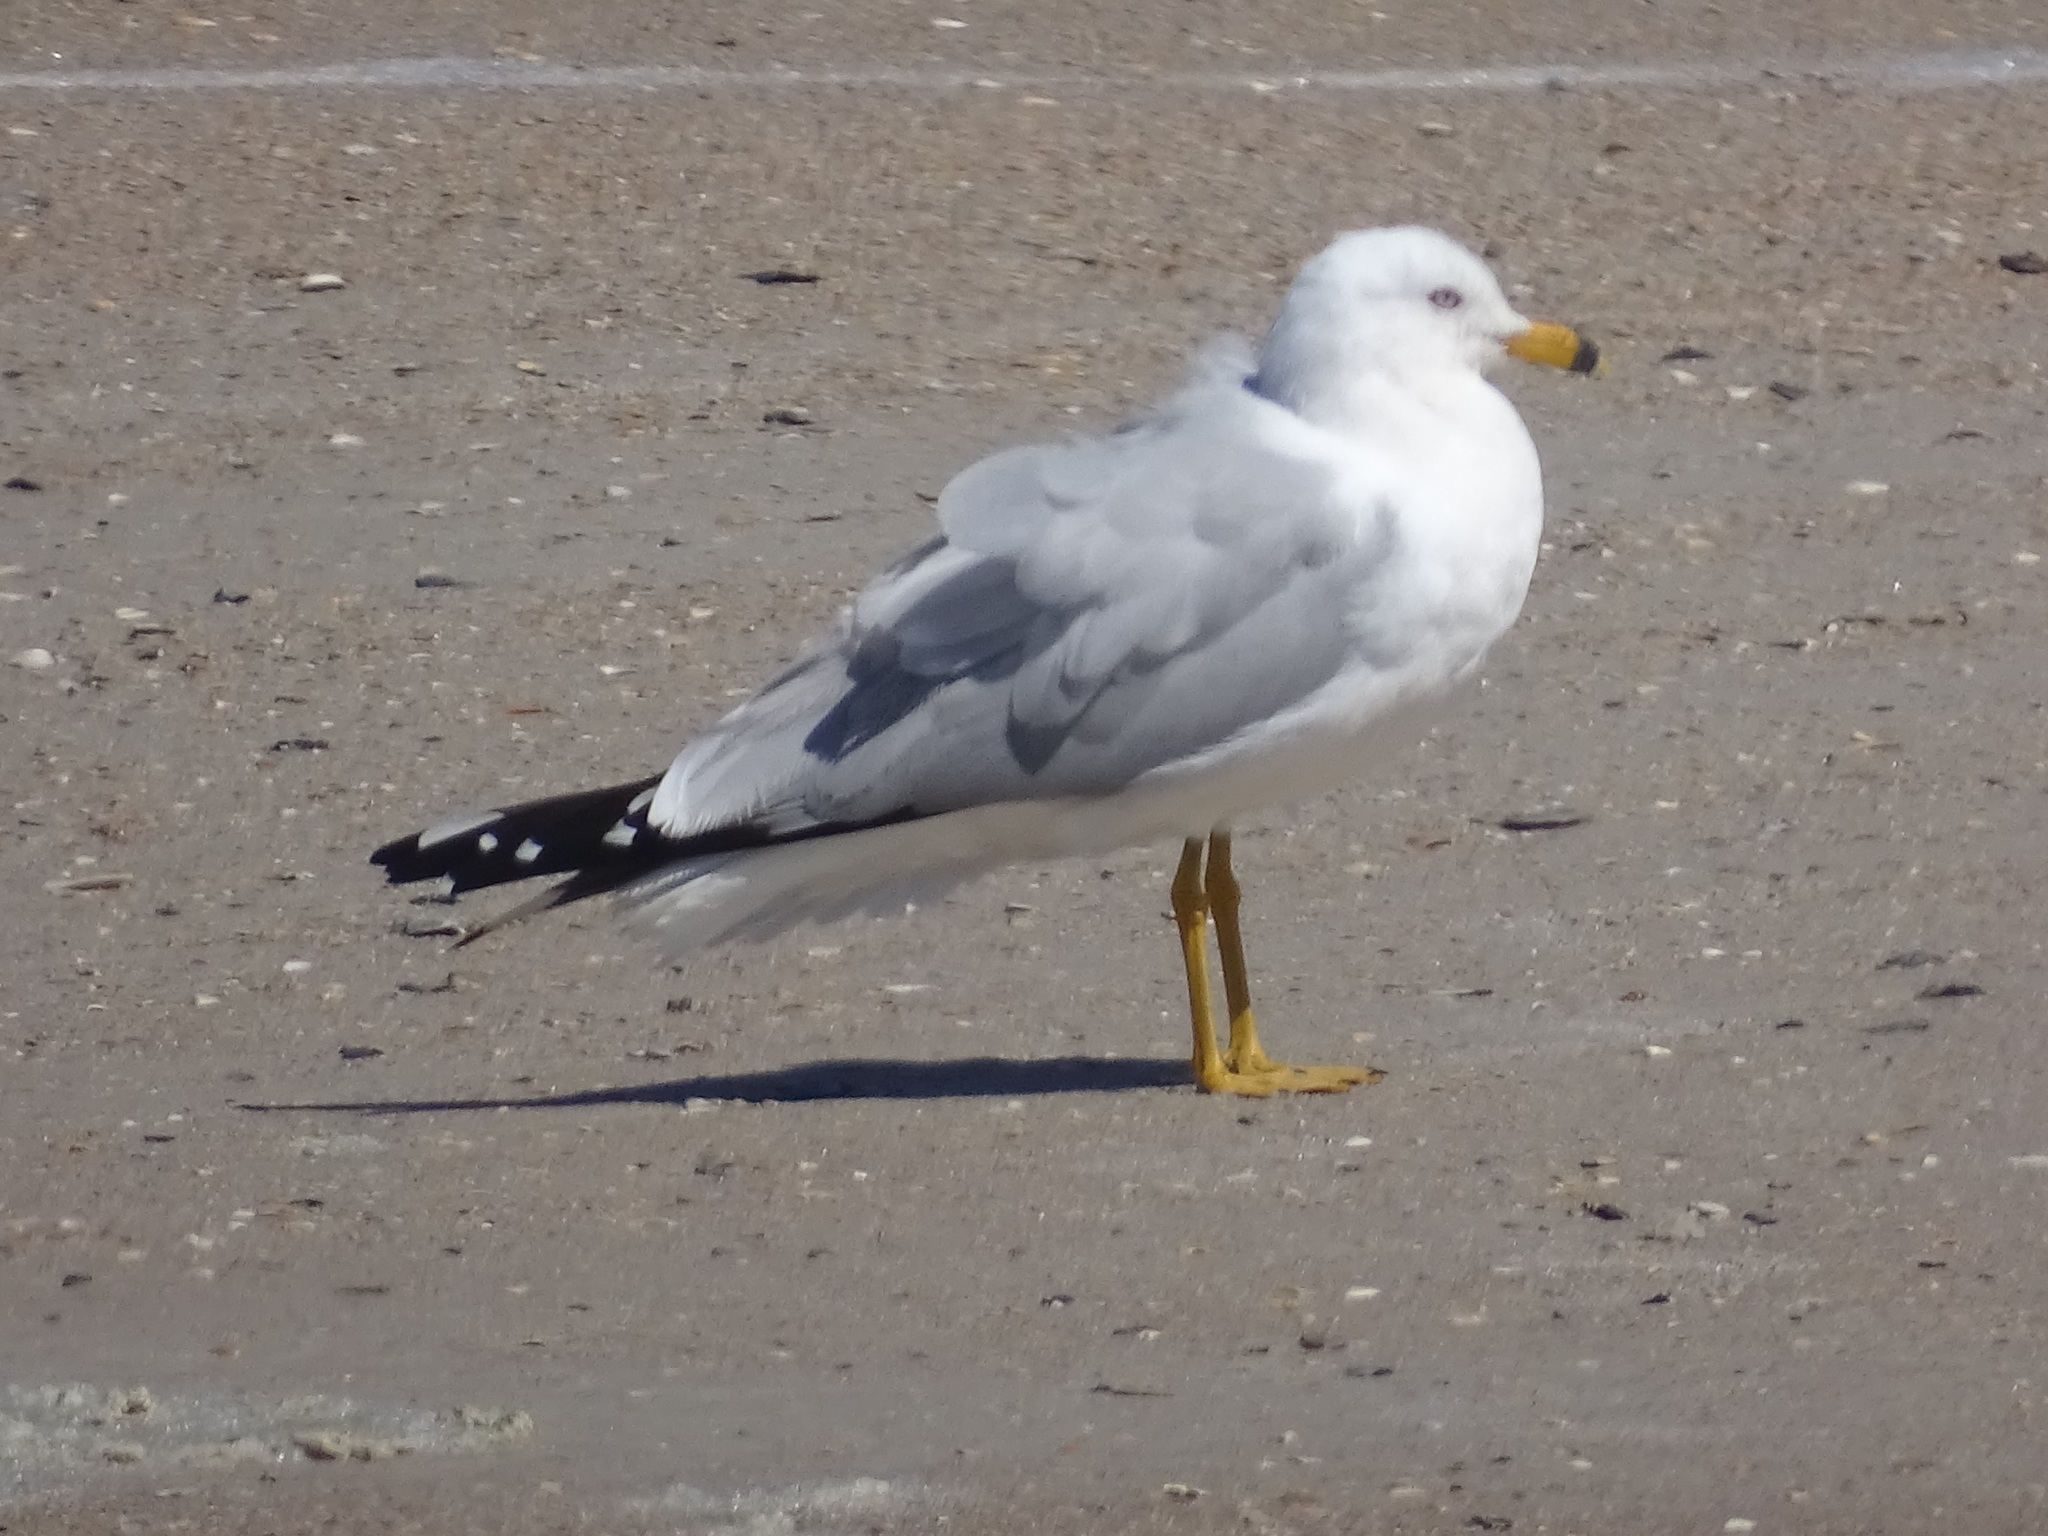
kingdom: Animalia
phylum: Chordata
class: Aves
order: Charadriiformes
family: Laridae
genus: Larus
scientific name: Larus delawarensis
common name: Ring-billed gull
